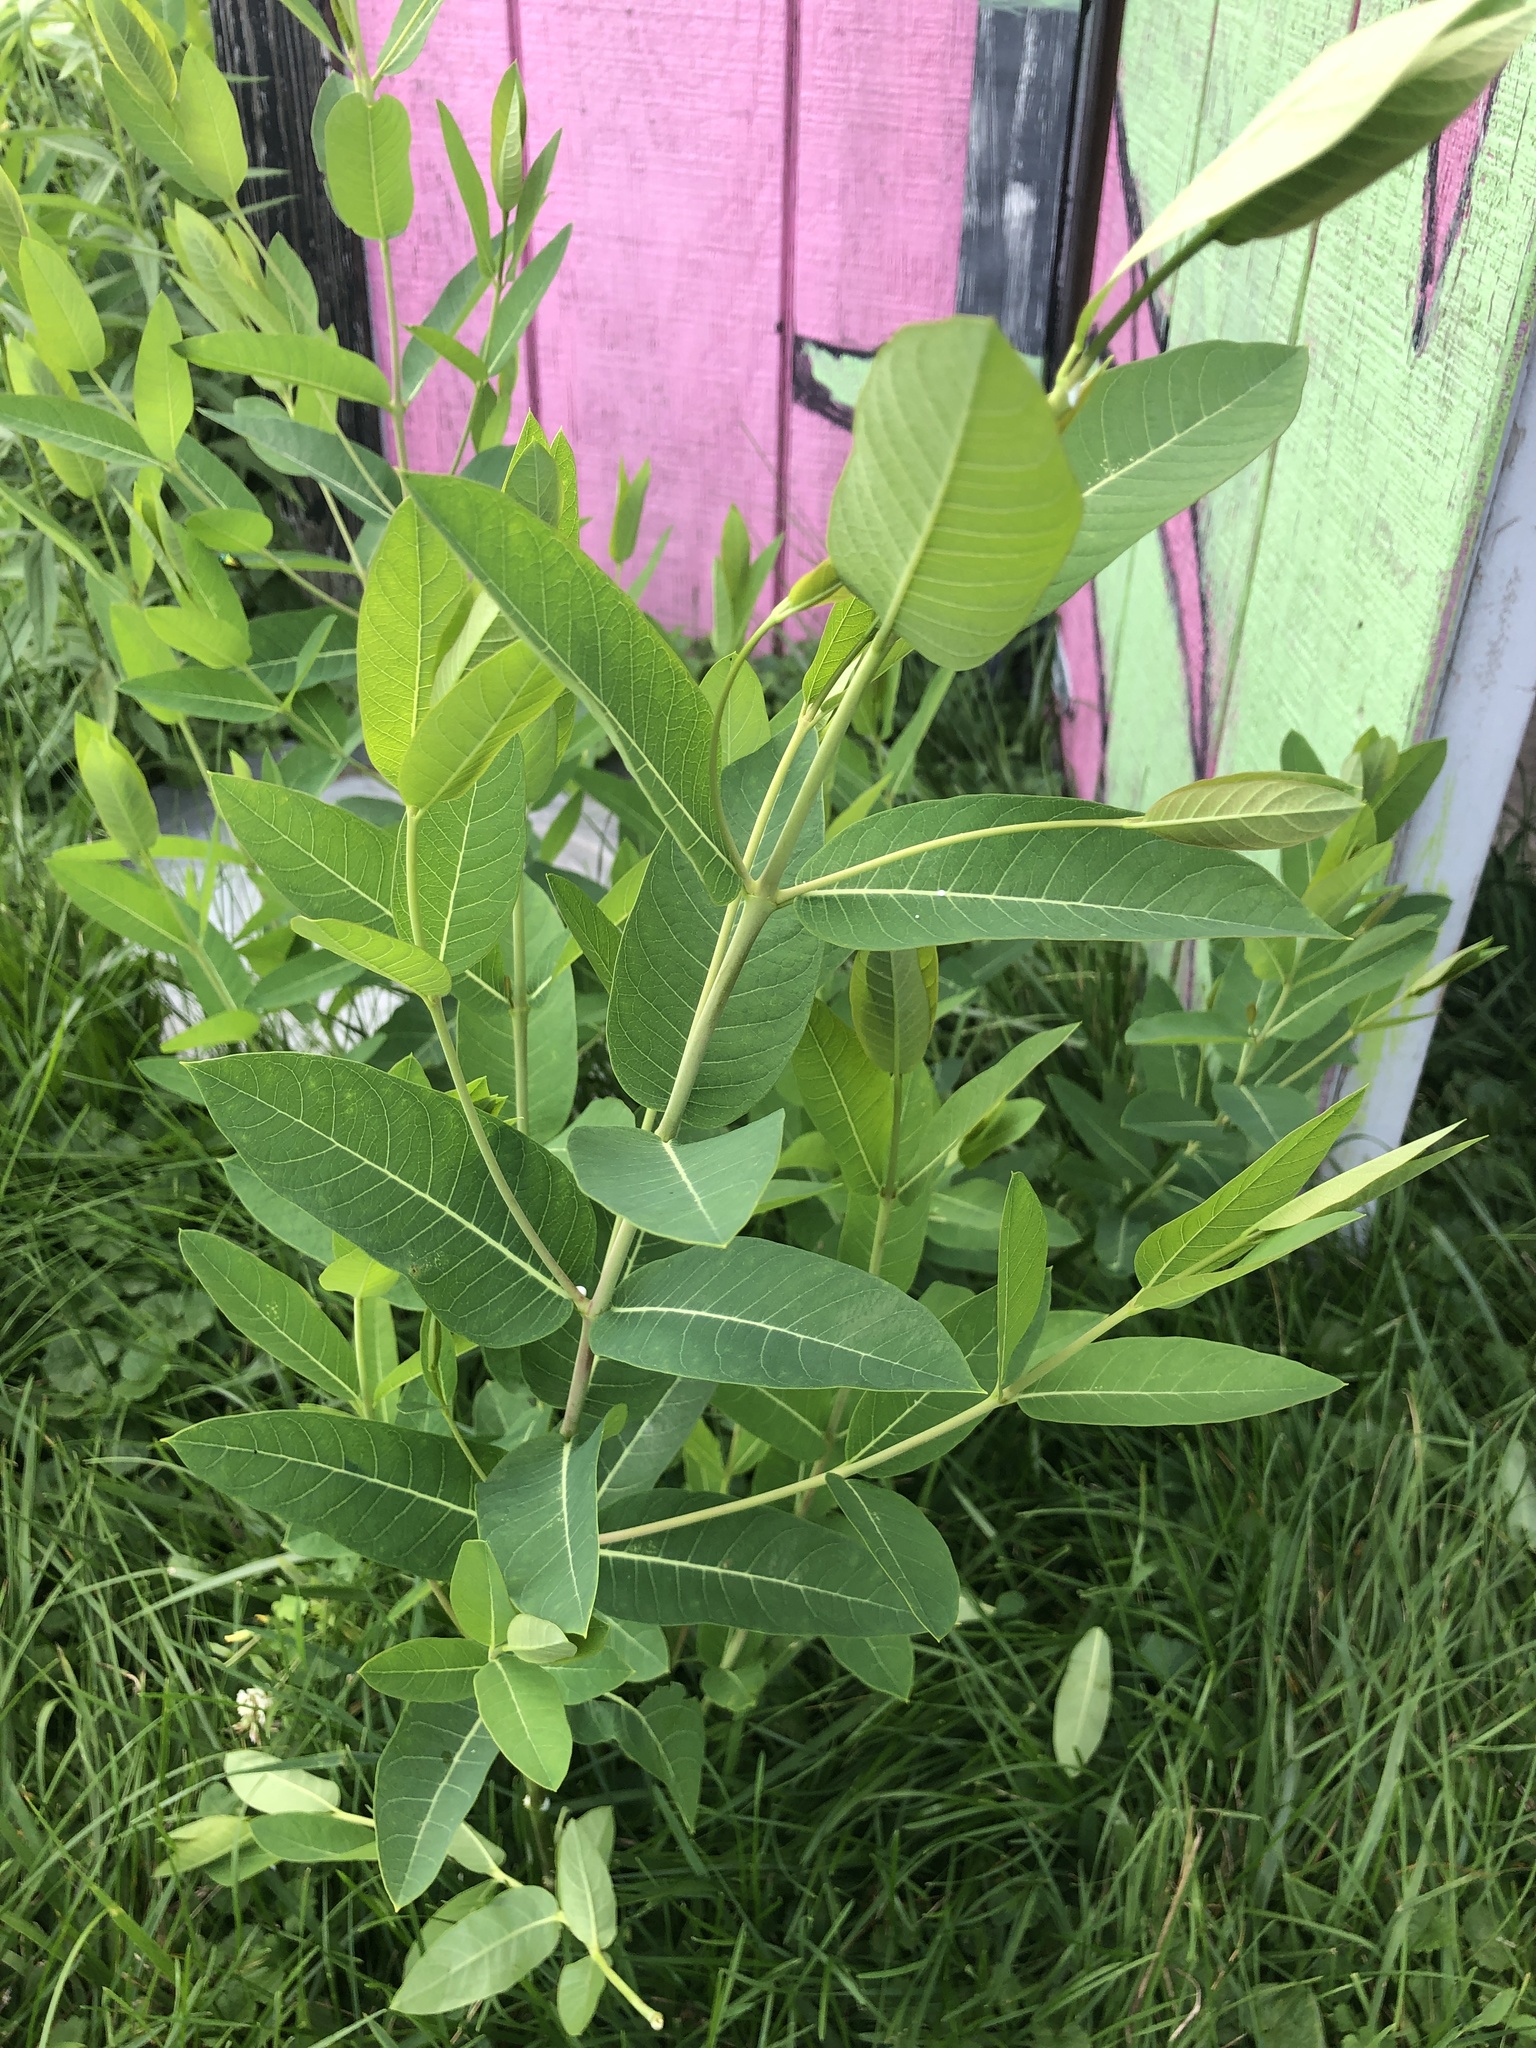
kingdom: Plantae
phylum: Tracheophyta
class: Magnoliopsida
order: Gentianales
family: Apocynaceae
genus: Apocynum
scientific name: Apocynum cannabinum
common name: Hemp dogbane
